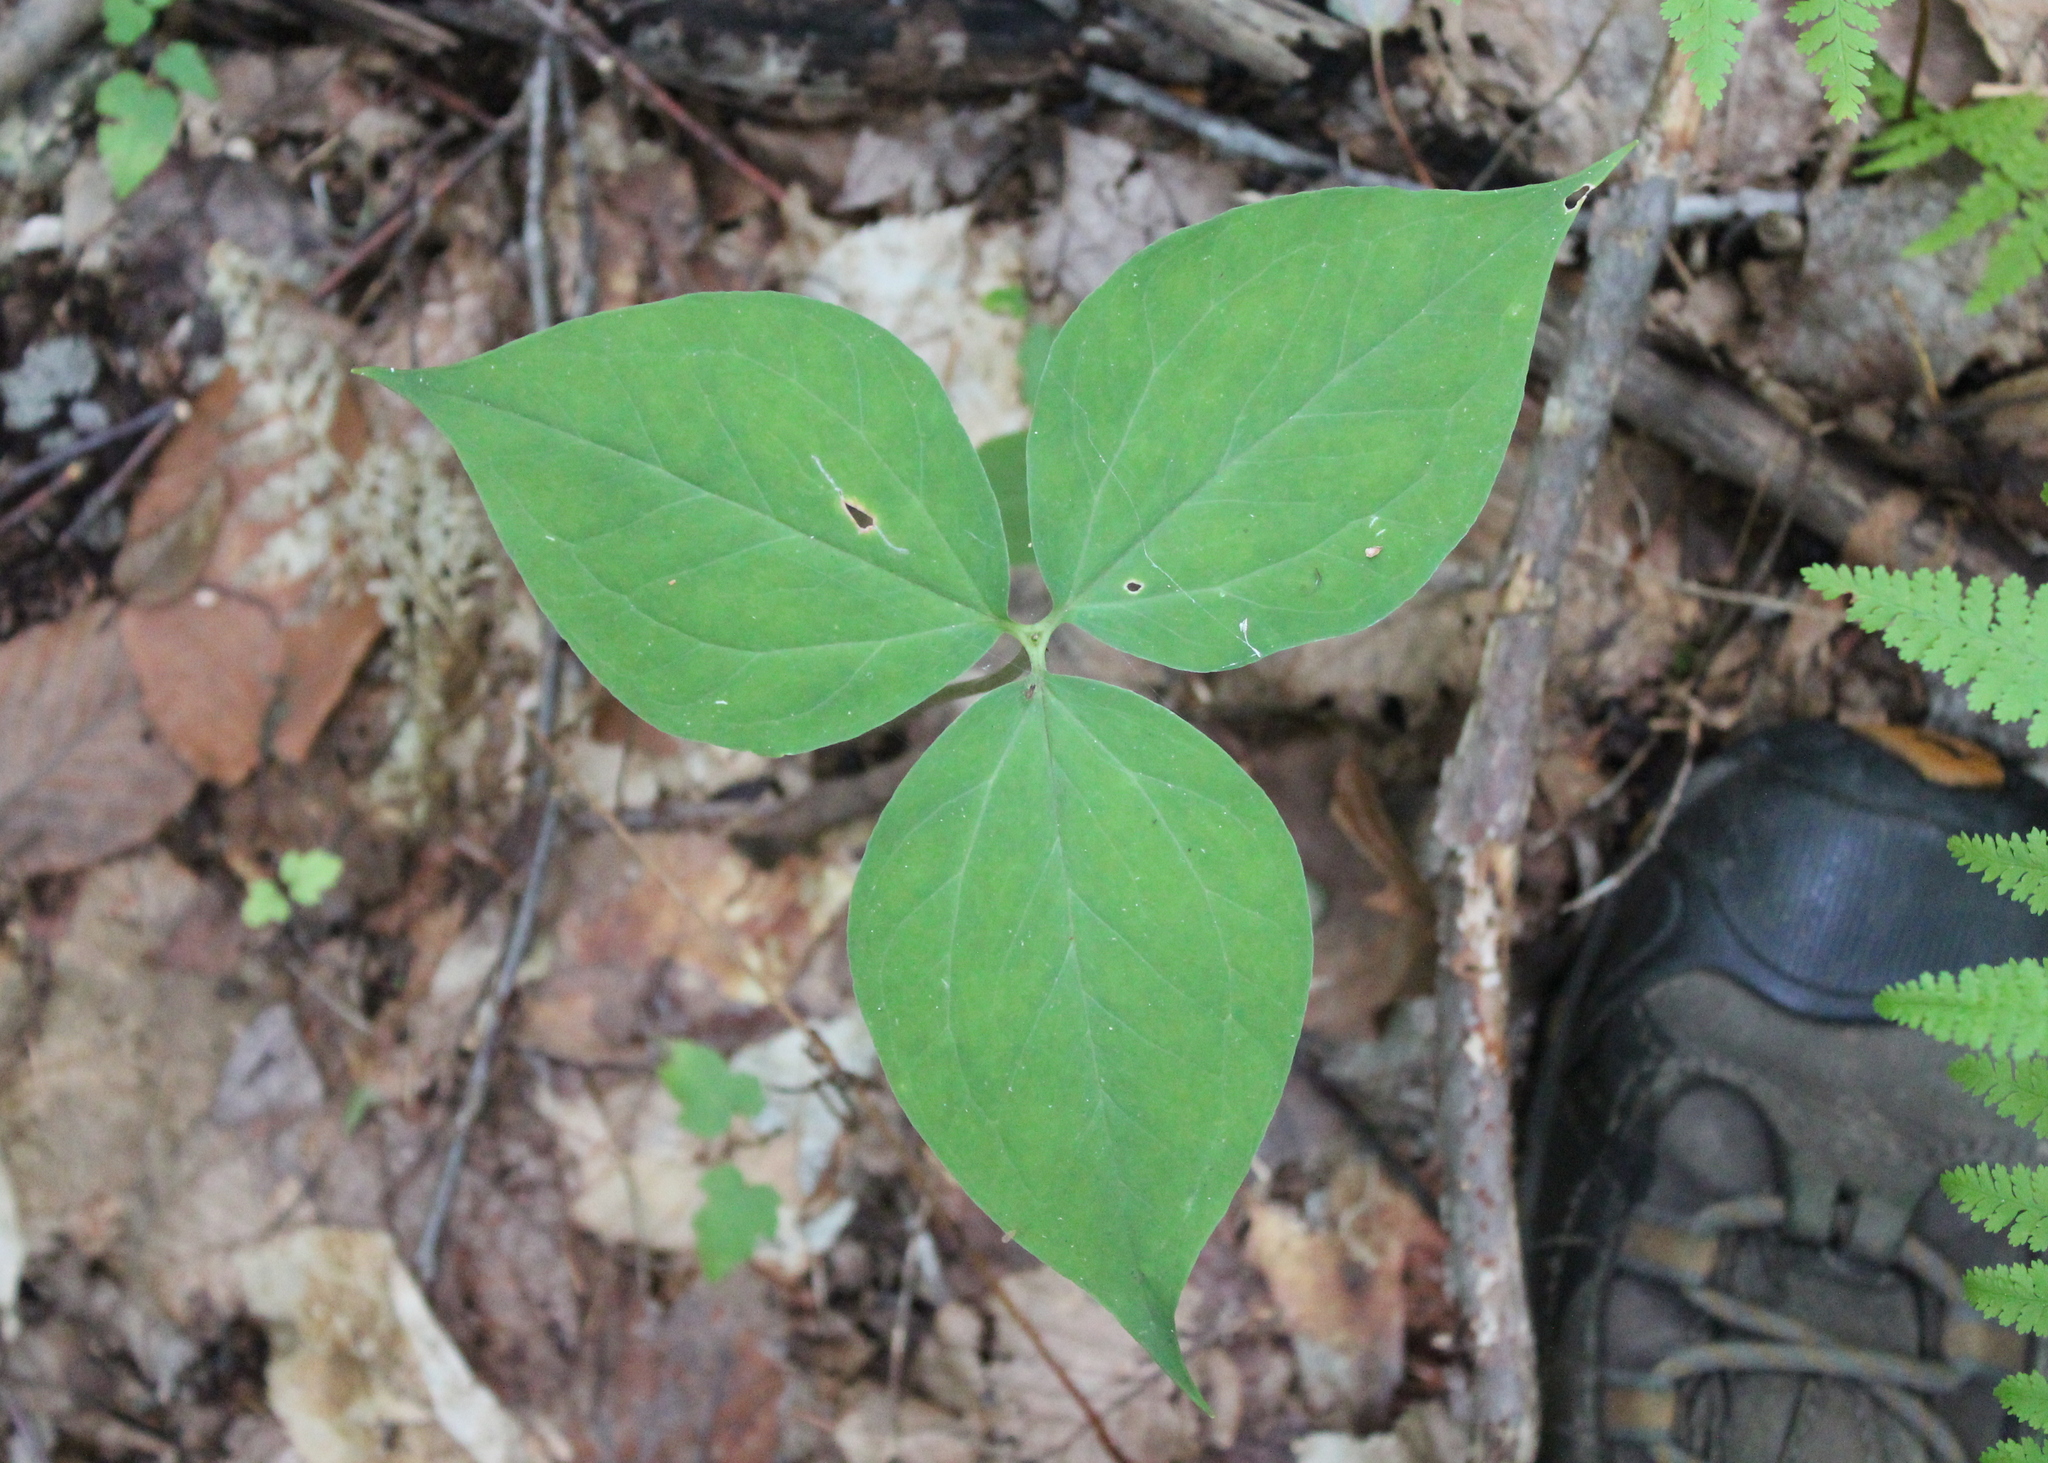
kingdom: Plantae
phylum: Tracheophyta
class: Liliopsida
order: Liliales
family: Melanthiaceae
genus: Trillium
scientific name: Trillium undulatum
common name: Paint trillium
